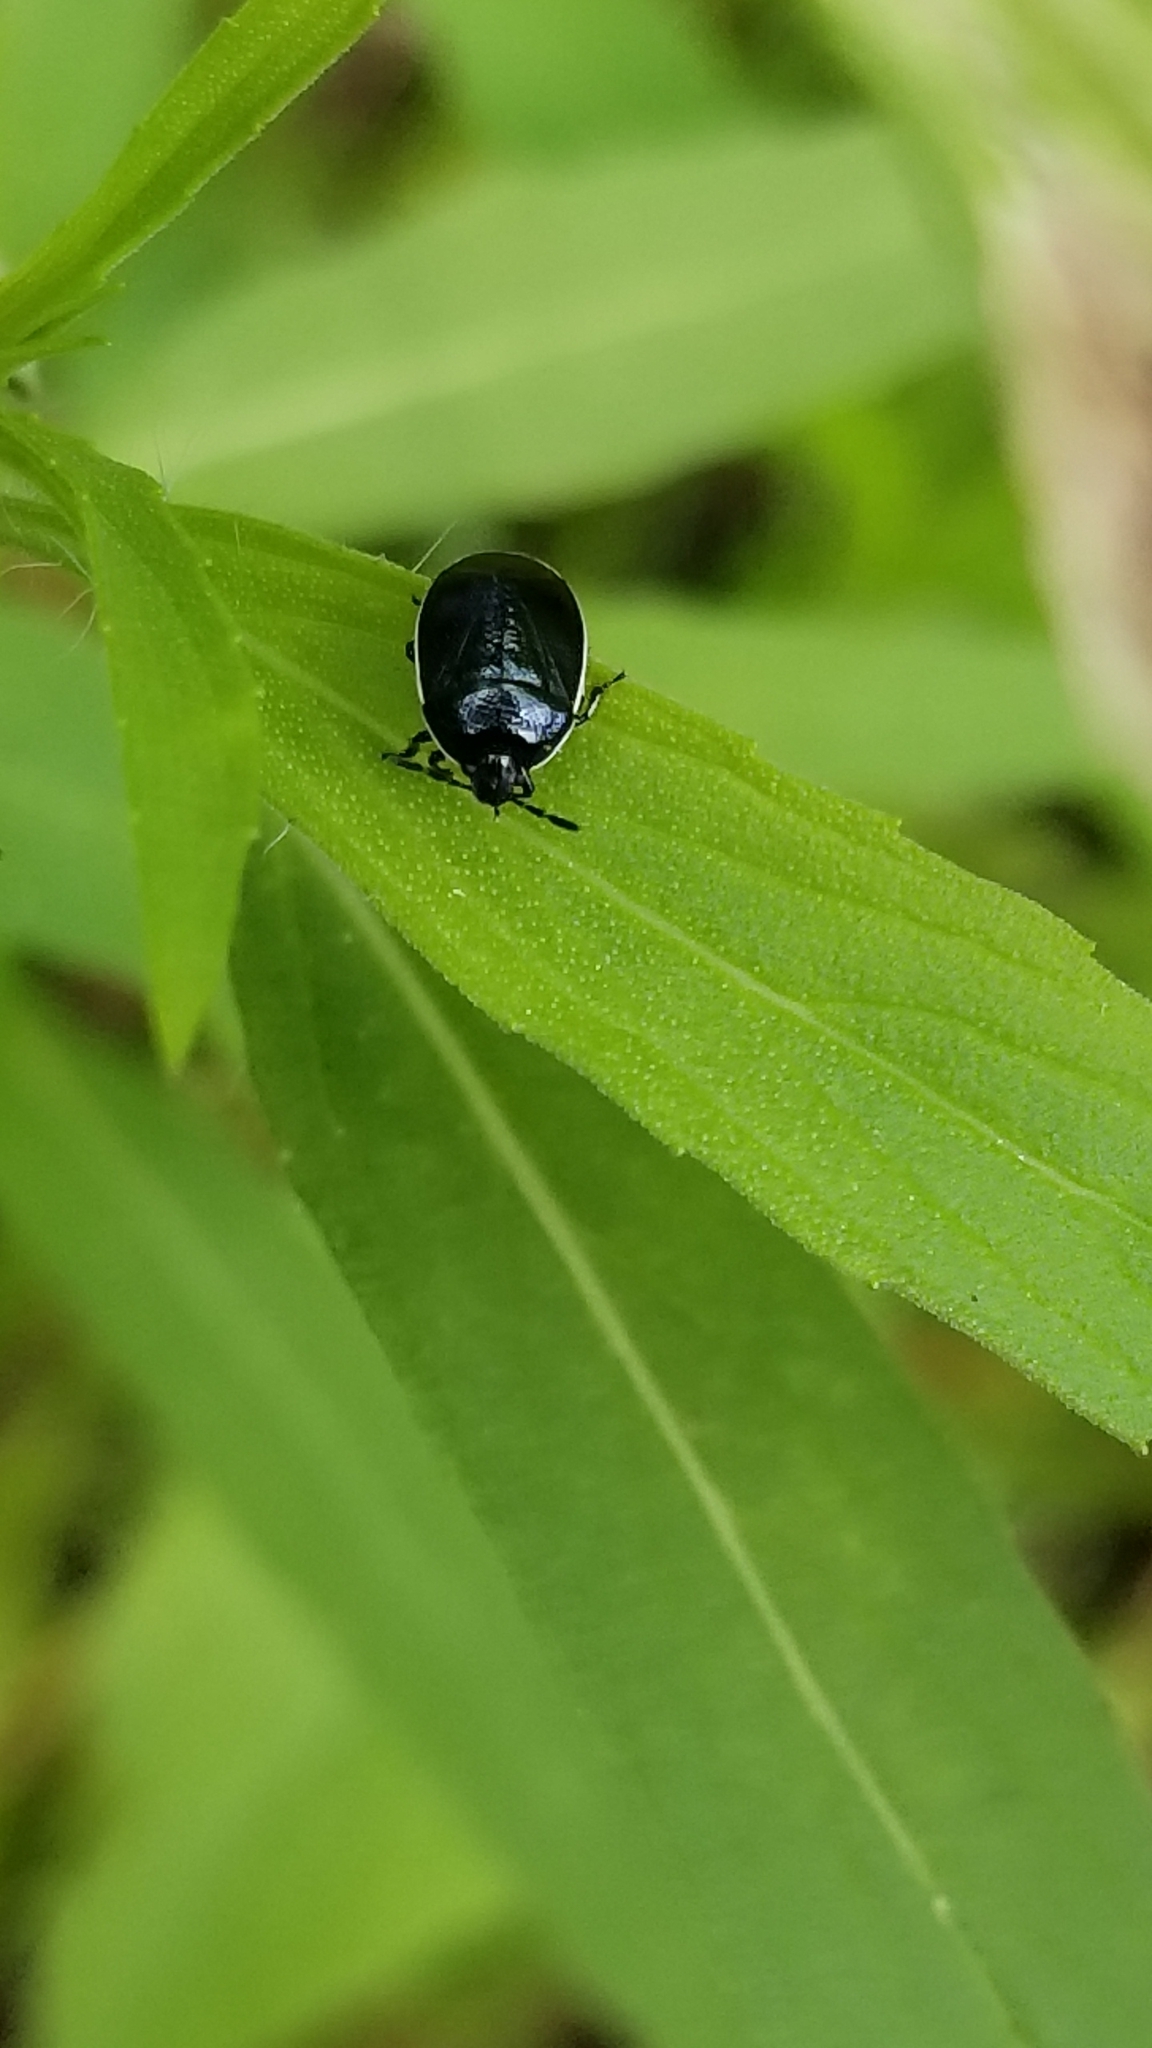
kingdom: Animalia
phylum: Arthropoda
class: Insecta
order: Hemiptera
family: Cydnidae
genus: Sehirus
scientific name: Sehirus cinctus
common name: White-margined burrower bug
